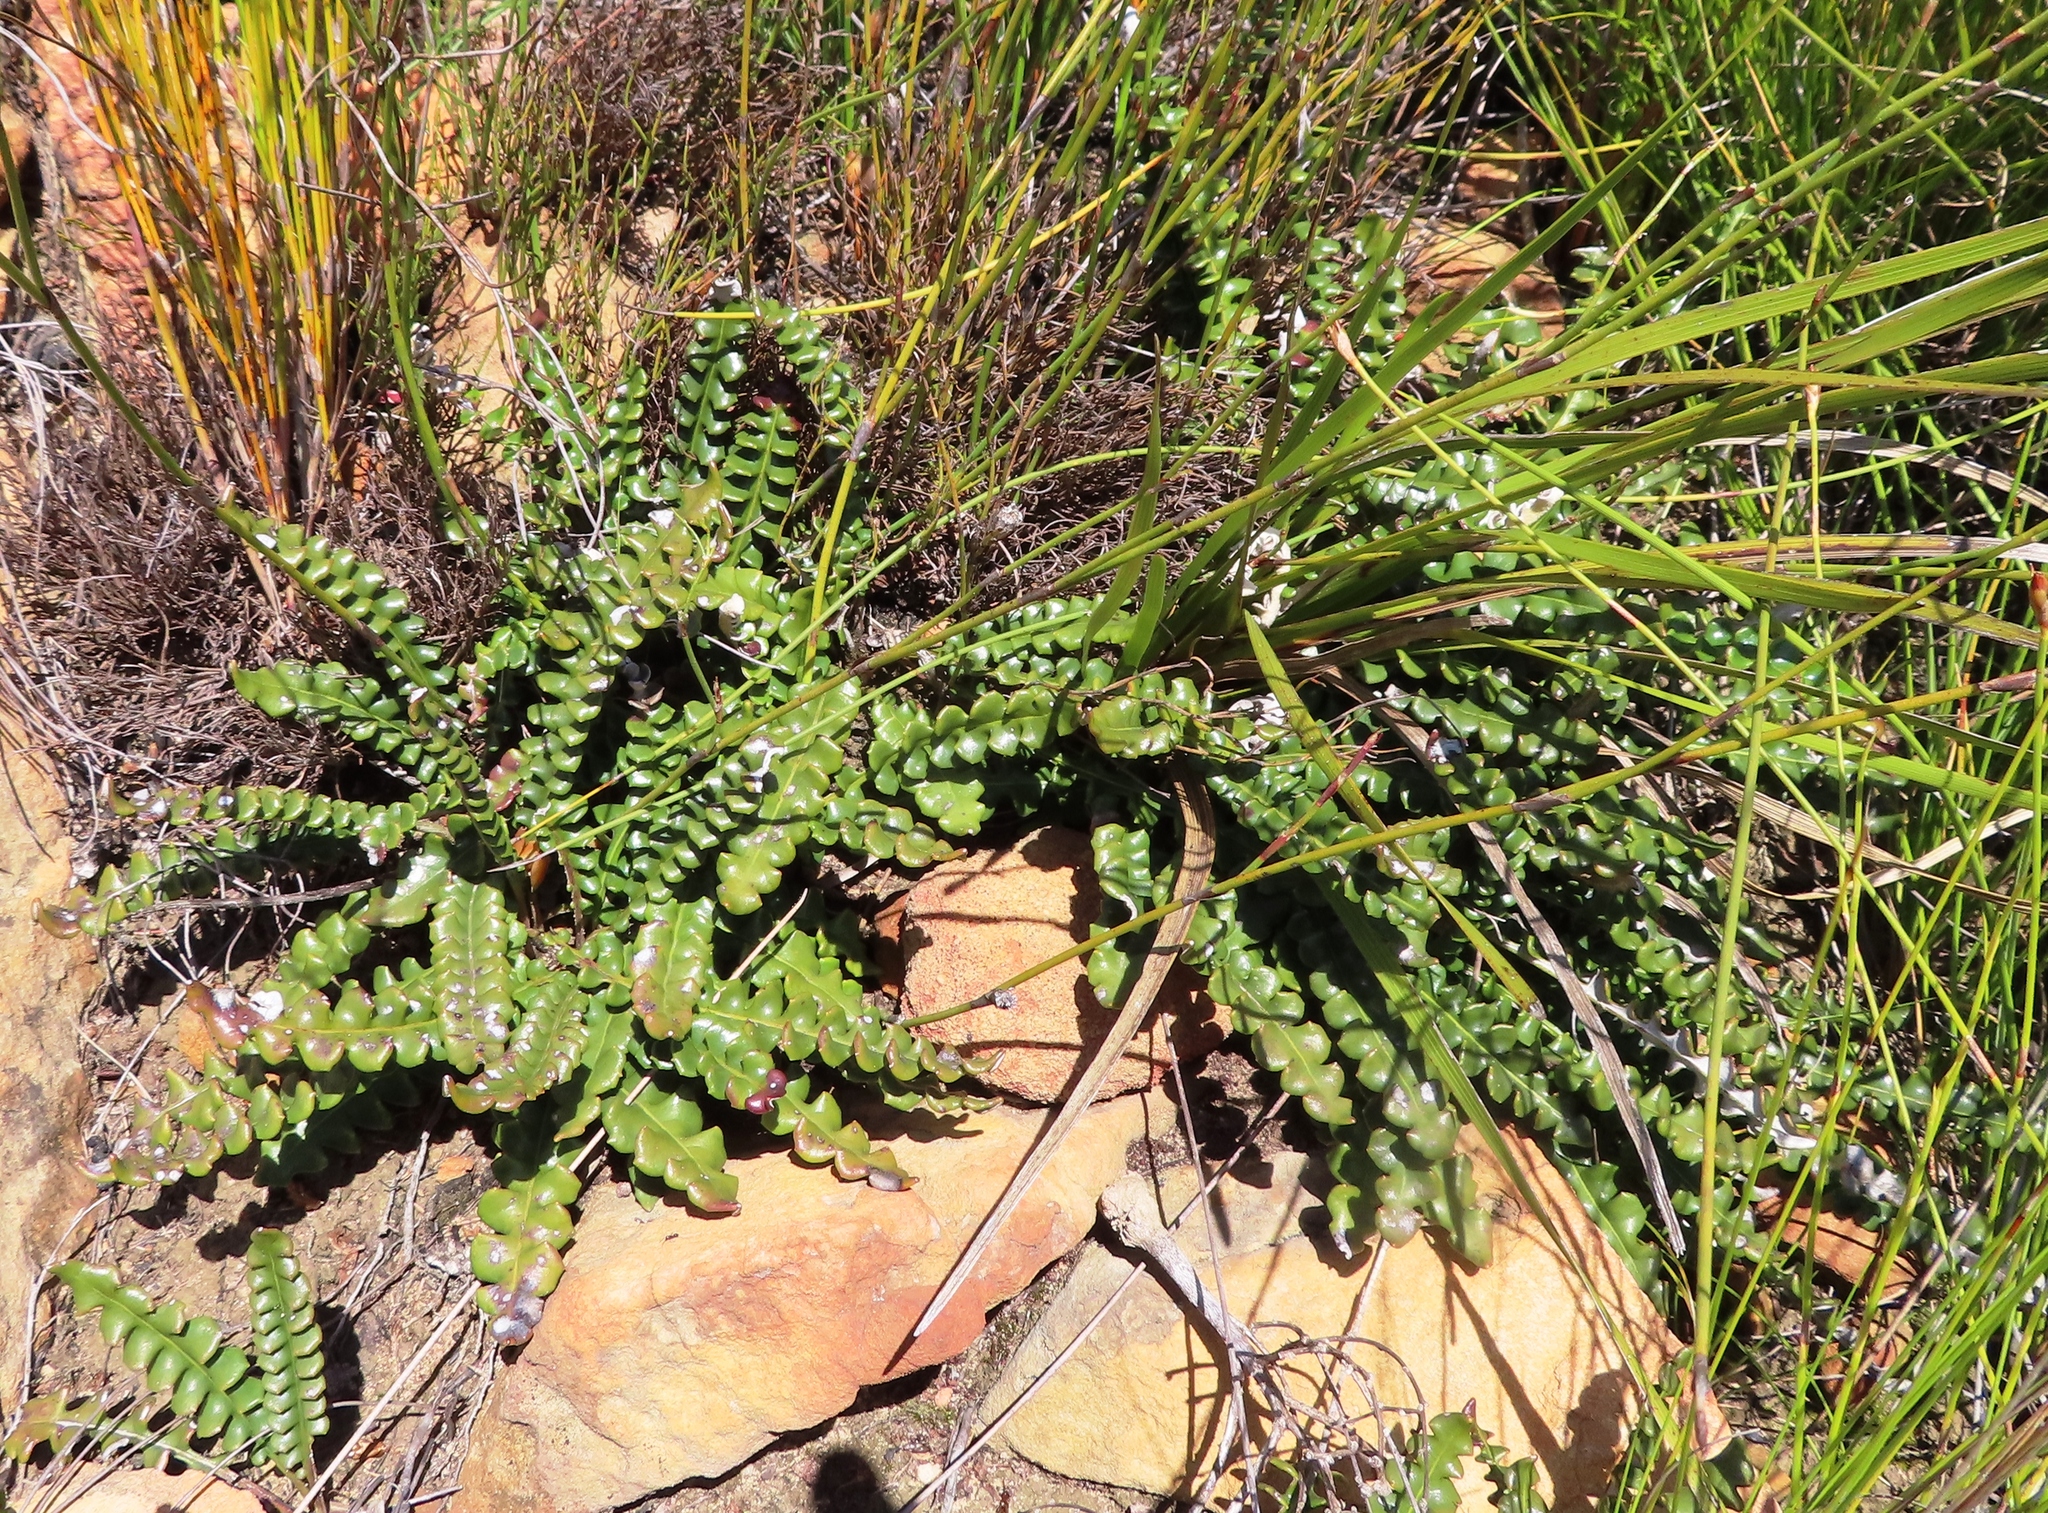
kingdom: Plantae
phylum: Tracheophyta
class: Magnoliopsida
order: Asterales
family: Asteraceae
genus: Gerbera
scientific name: Gerbera linnaei
